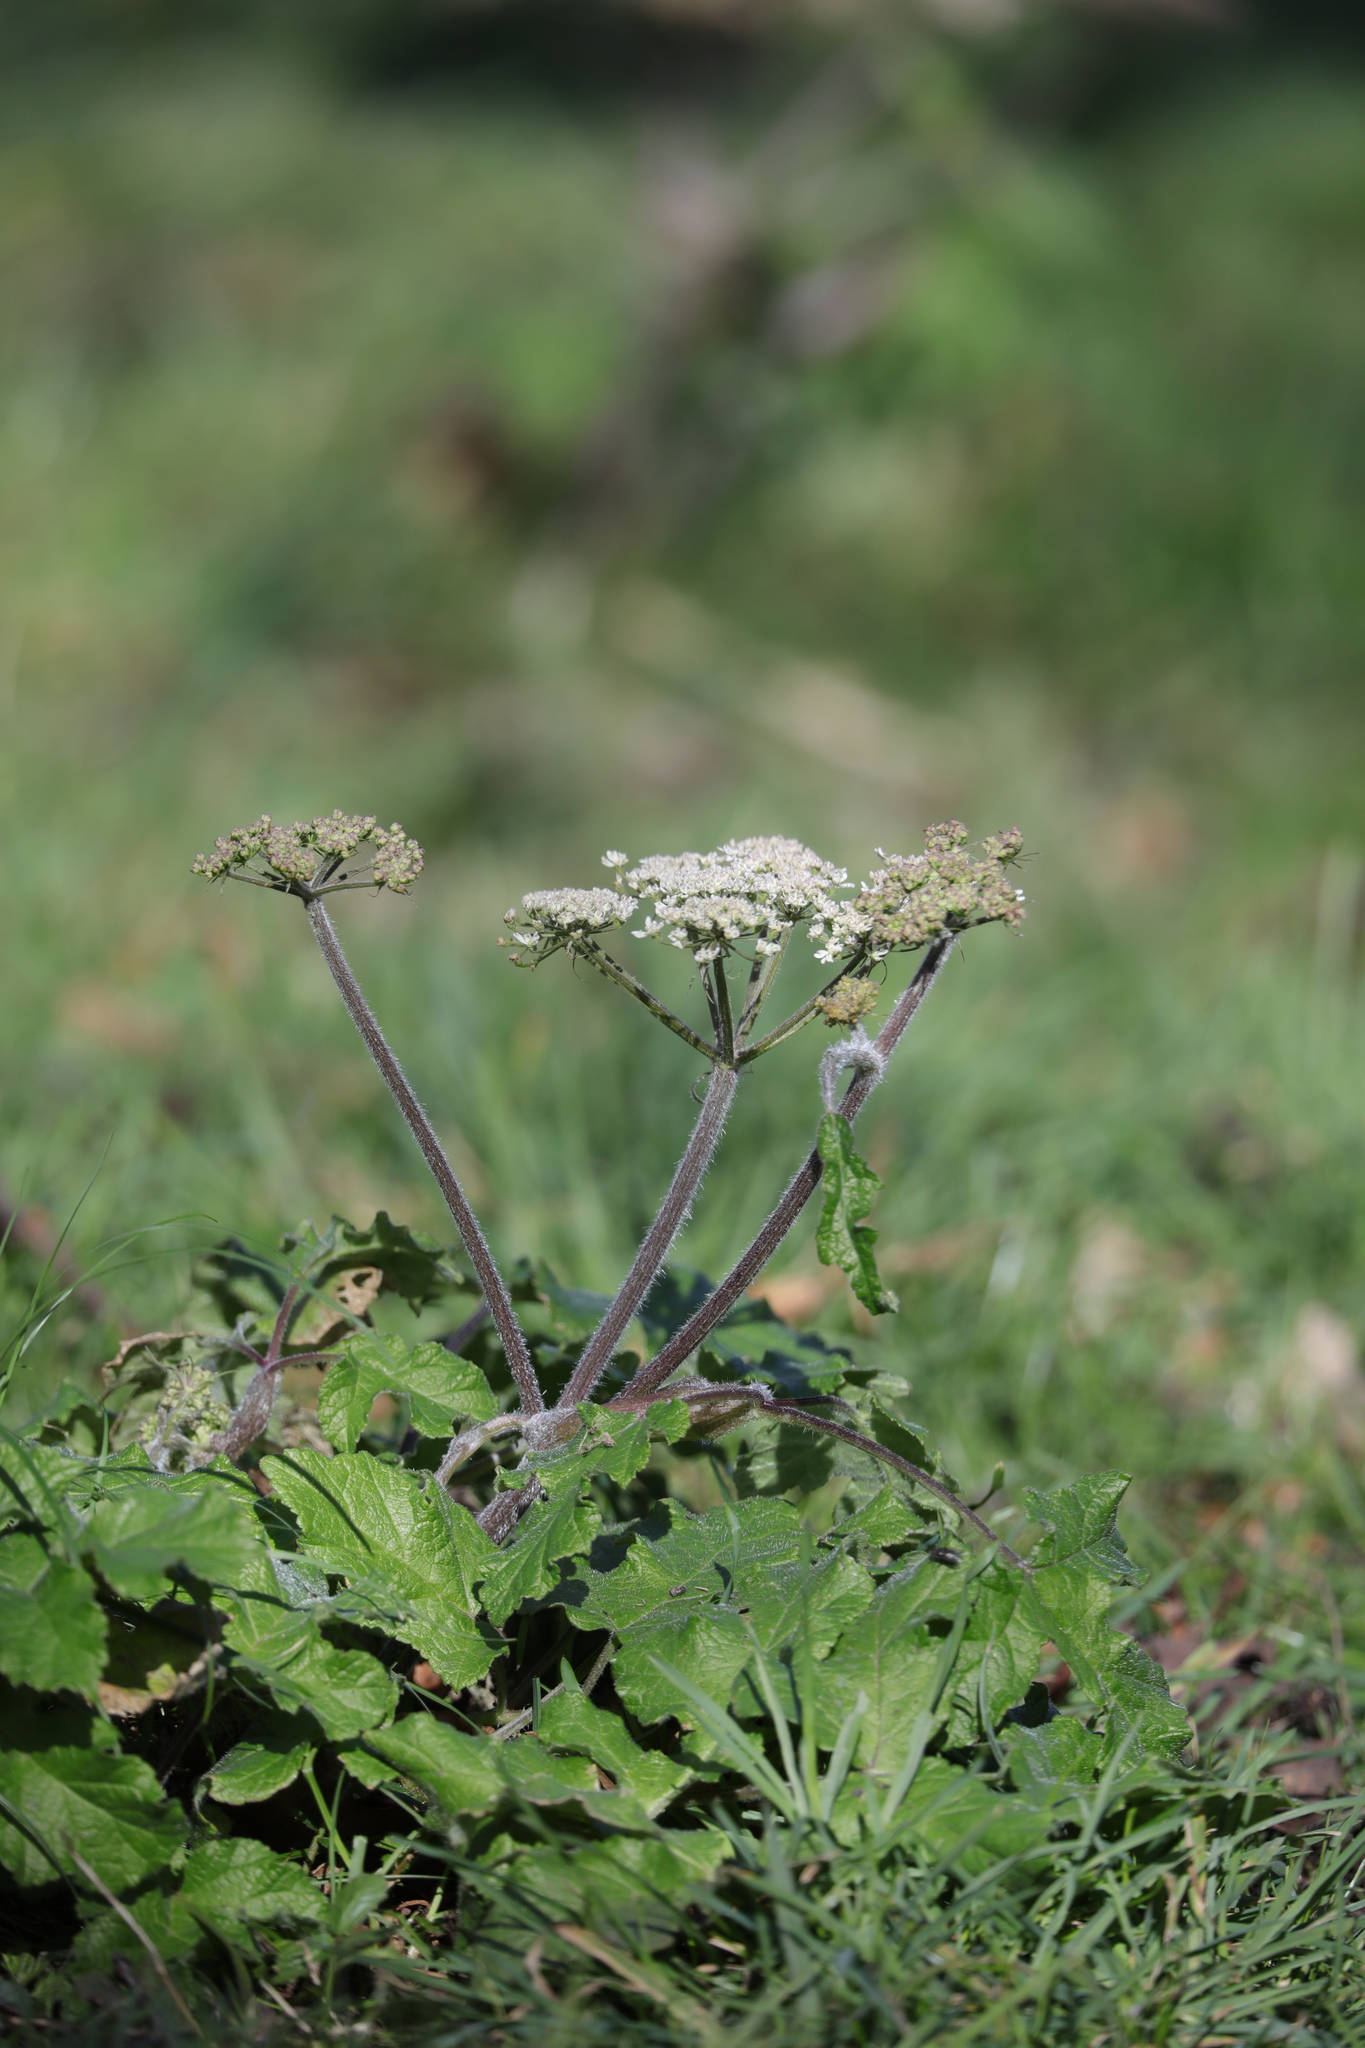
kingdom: Plantae
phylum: Tracheophyta
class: Magnoliopsida
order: Apiales
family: Apiaceae
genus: Heracleum
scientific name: Heracleum sphondylium
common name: Hogweed
